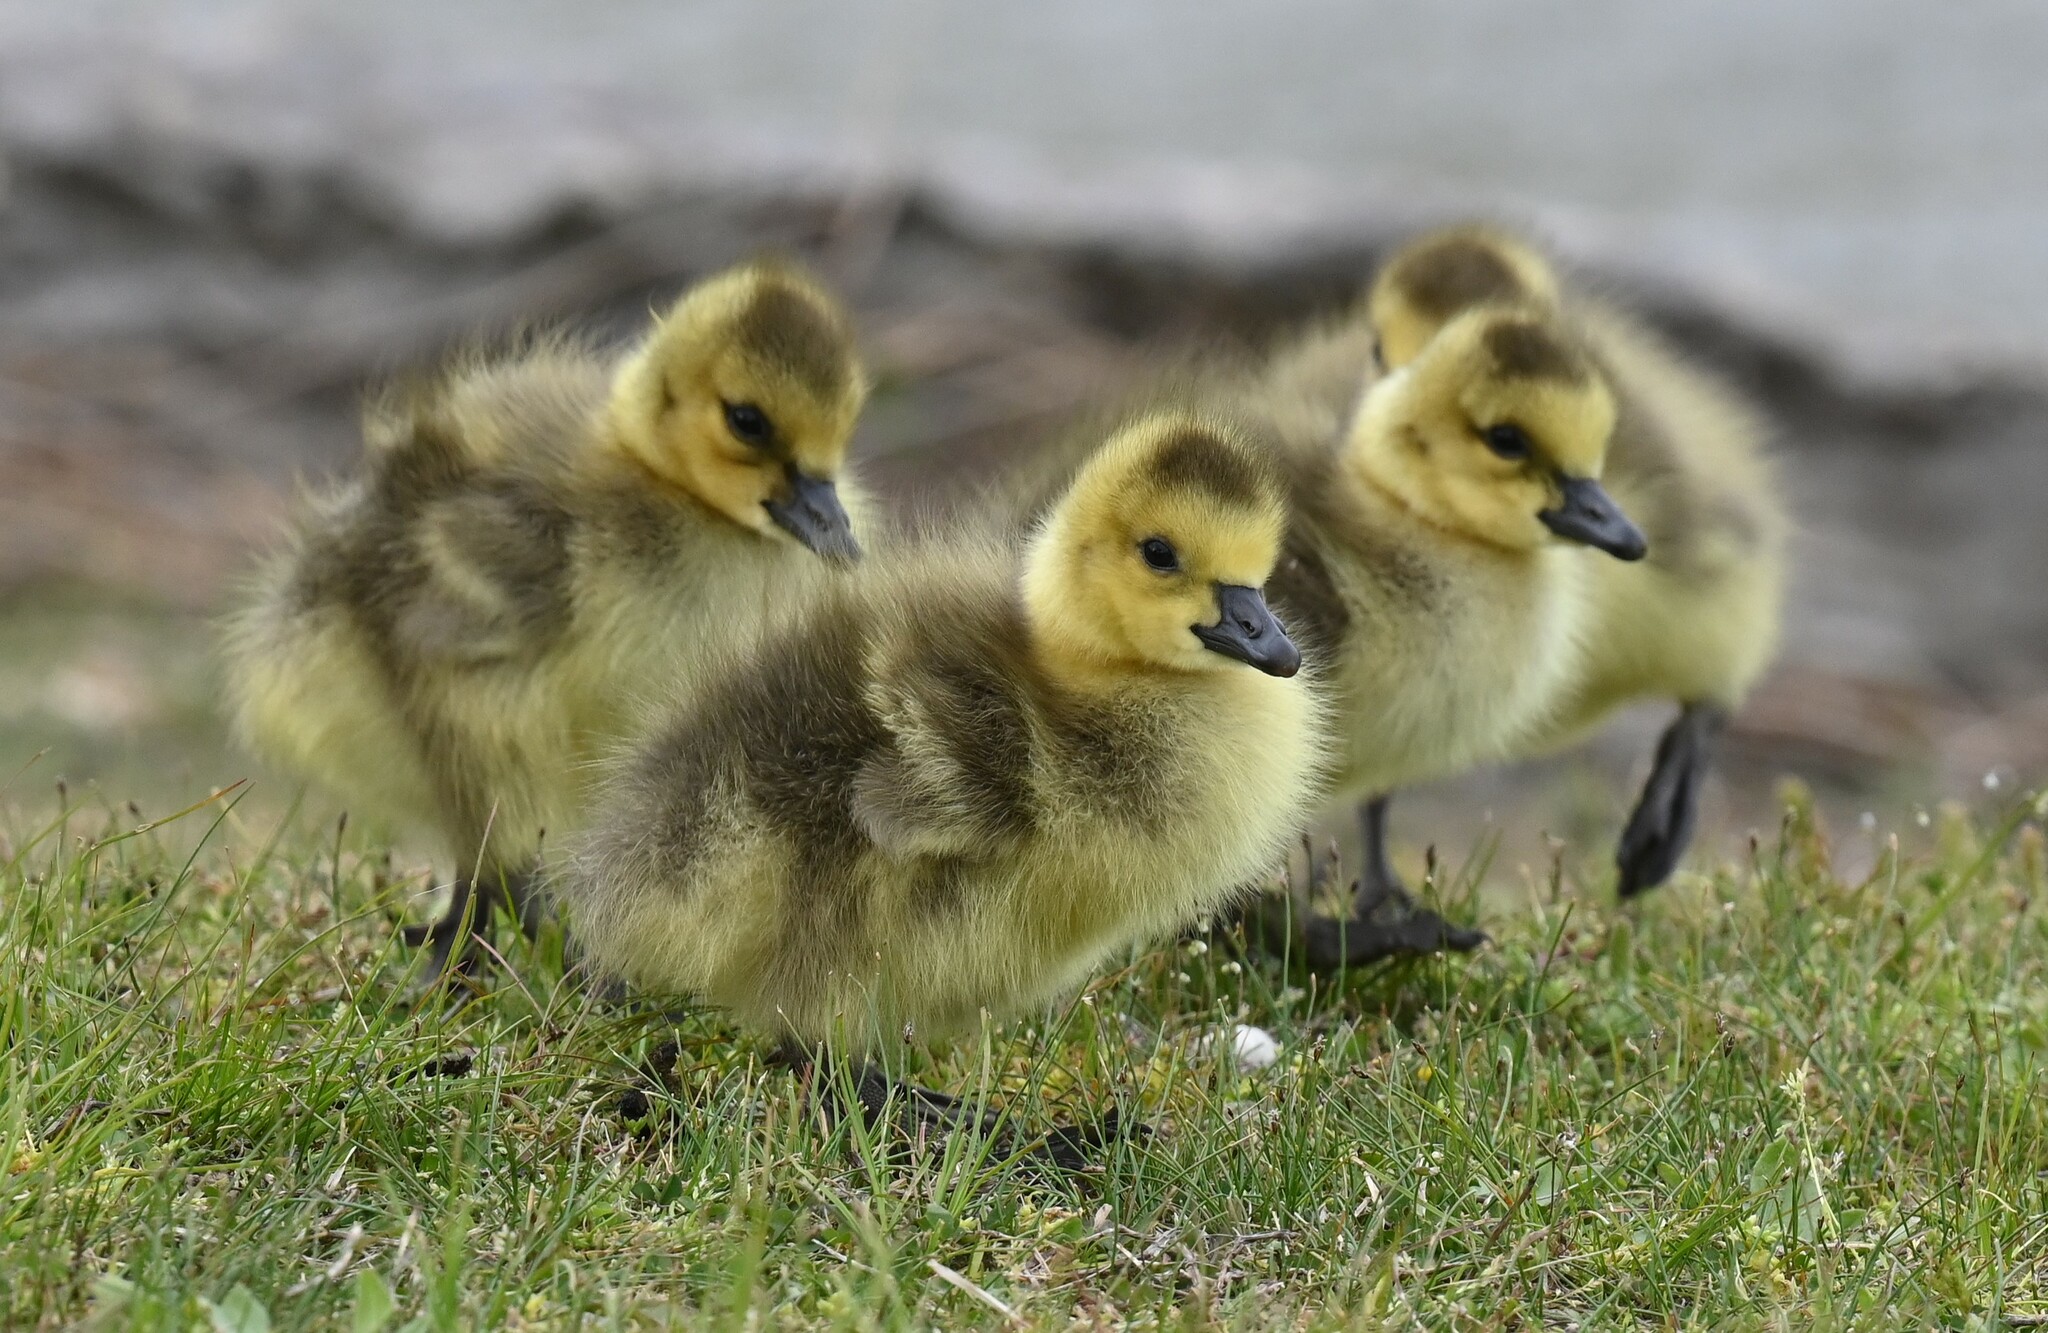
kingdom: Animalia
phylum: Chordata
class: Aves
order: Anseriformes
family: Anatidae
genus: Branta
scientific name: Branta canadensis
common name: Canada goose
